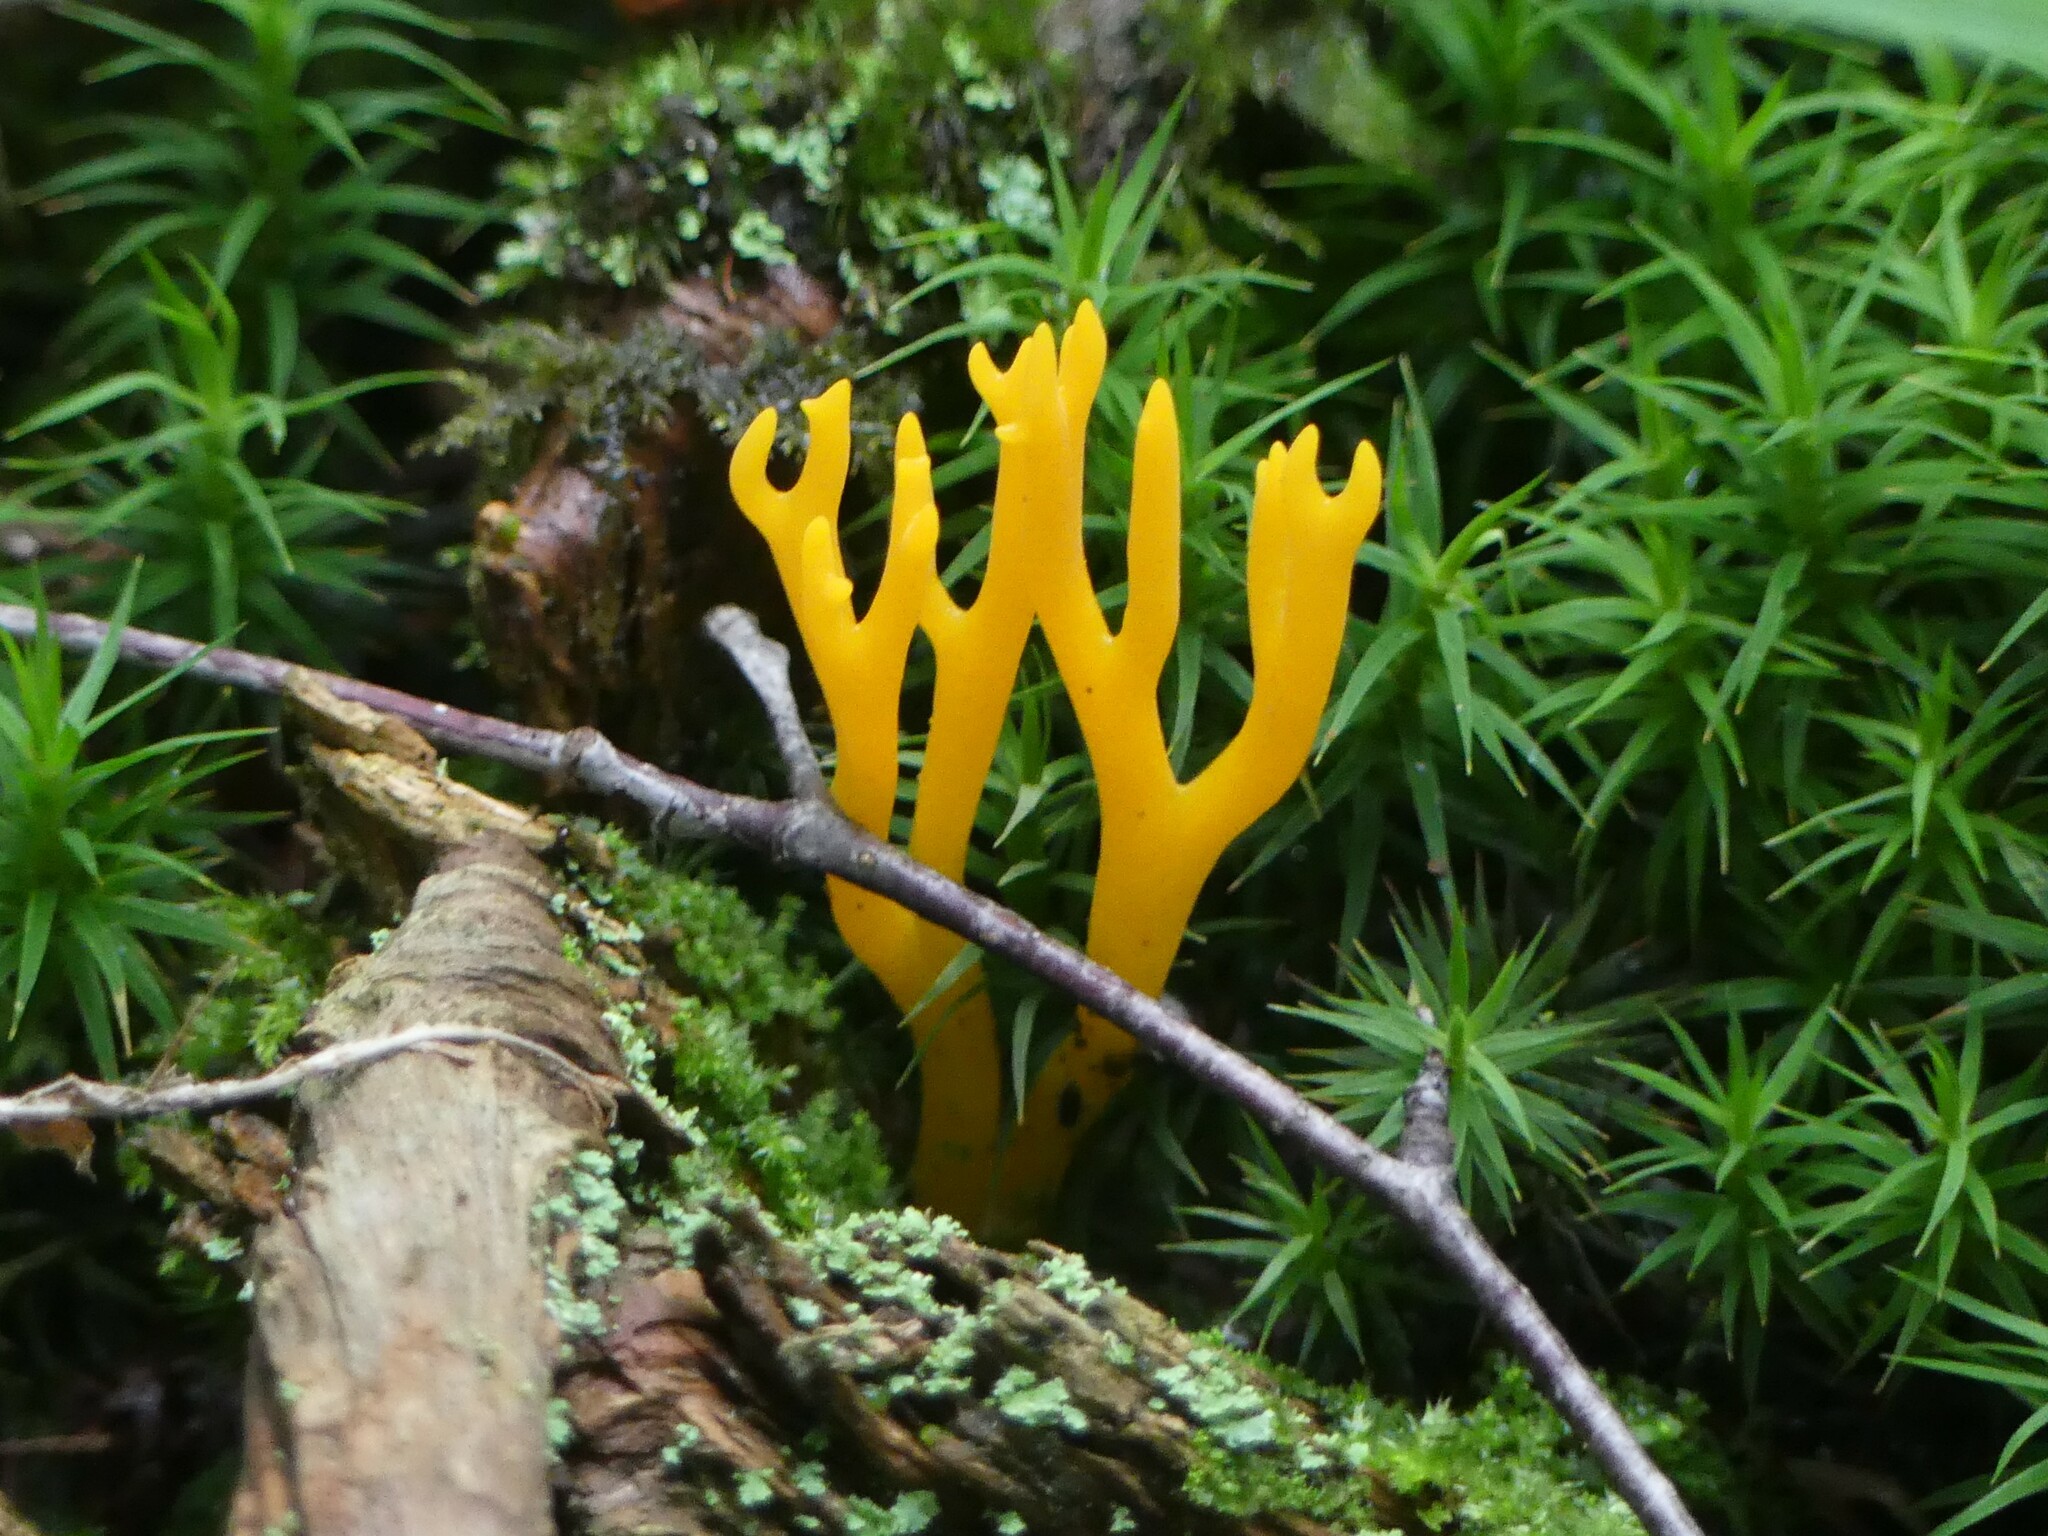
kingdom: Fungi
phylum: Basidiomycota
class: Dacrymycetes
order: Dacrymycetales
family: Dacrymycetaceae
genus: Calocera
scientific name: Calocera viscosa
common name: Yellow stagshorn
